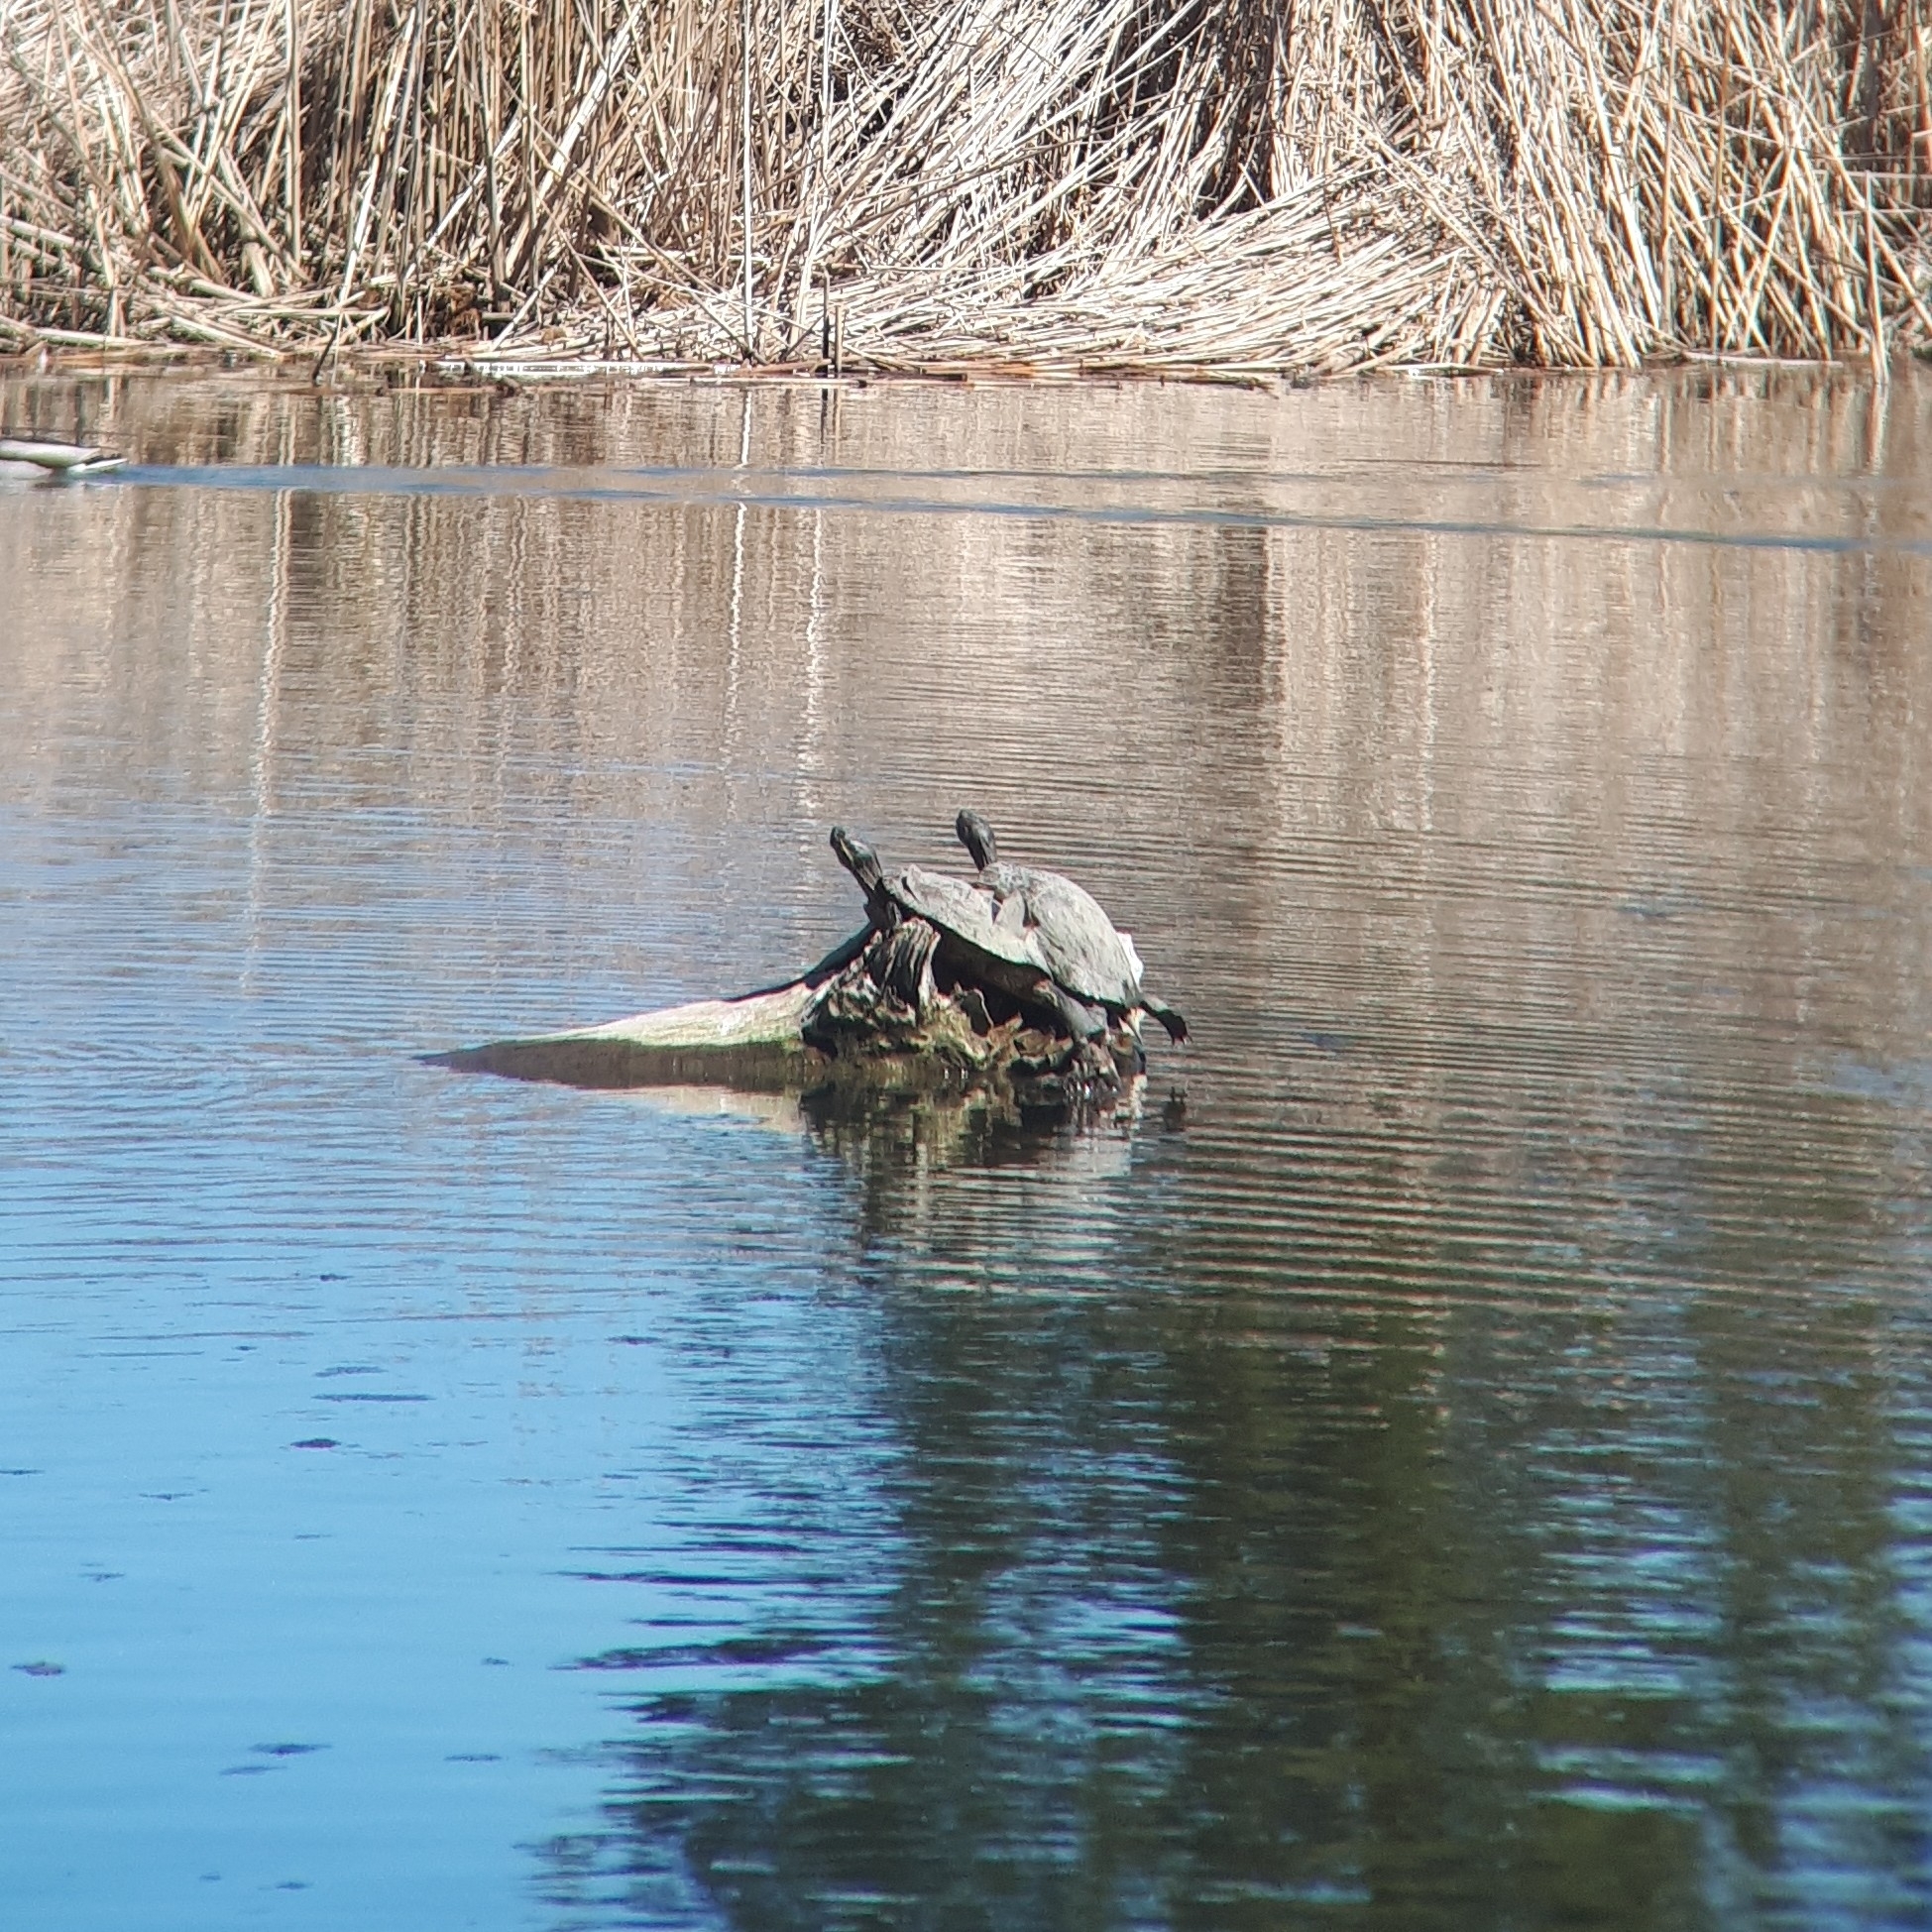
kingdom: Animalia
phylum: Chordata
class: Testudines
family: Emydidae
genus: Trachemys
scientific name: Trachemys scripta
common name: Slider
